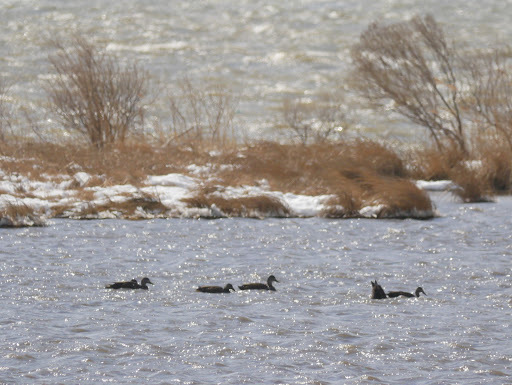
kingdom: Animalia
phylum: Chordata
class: Aves
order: Anseriformes
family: Anatidae
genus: Anas
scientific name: Anas rubripes
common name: American black duck
